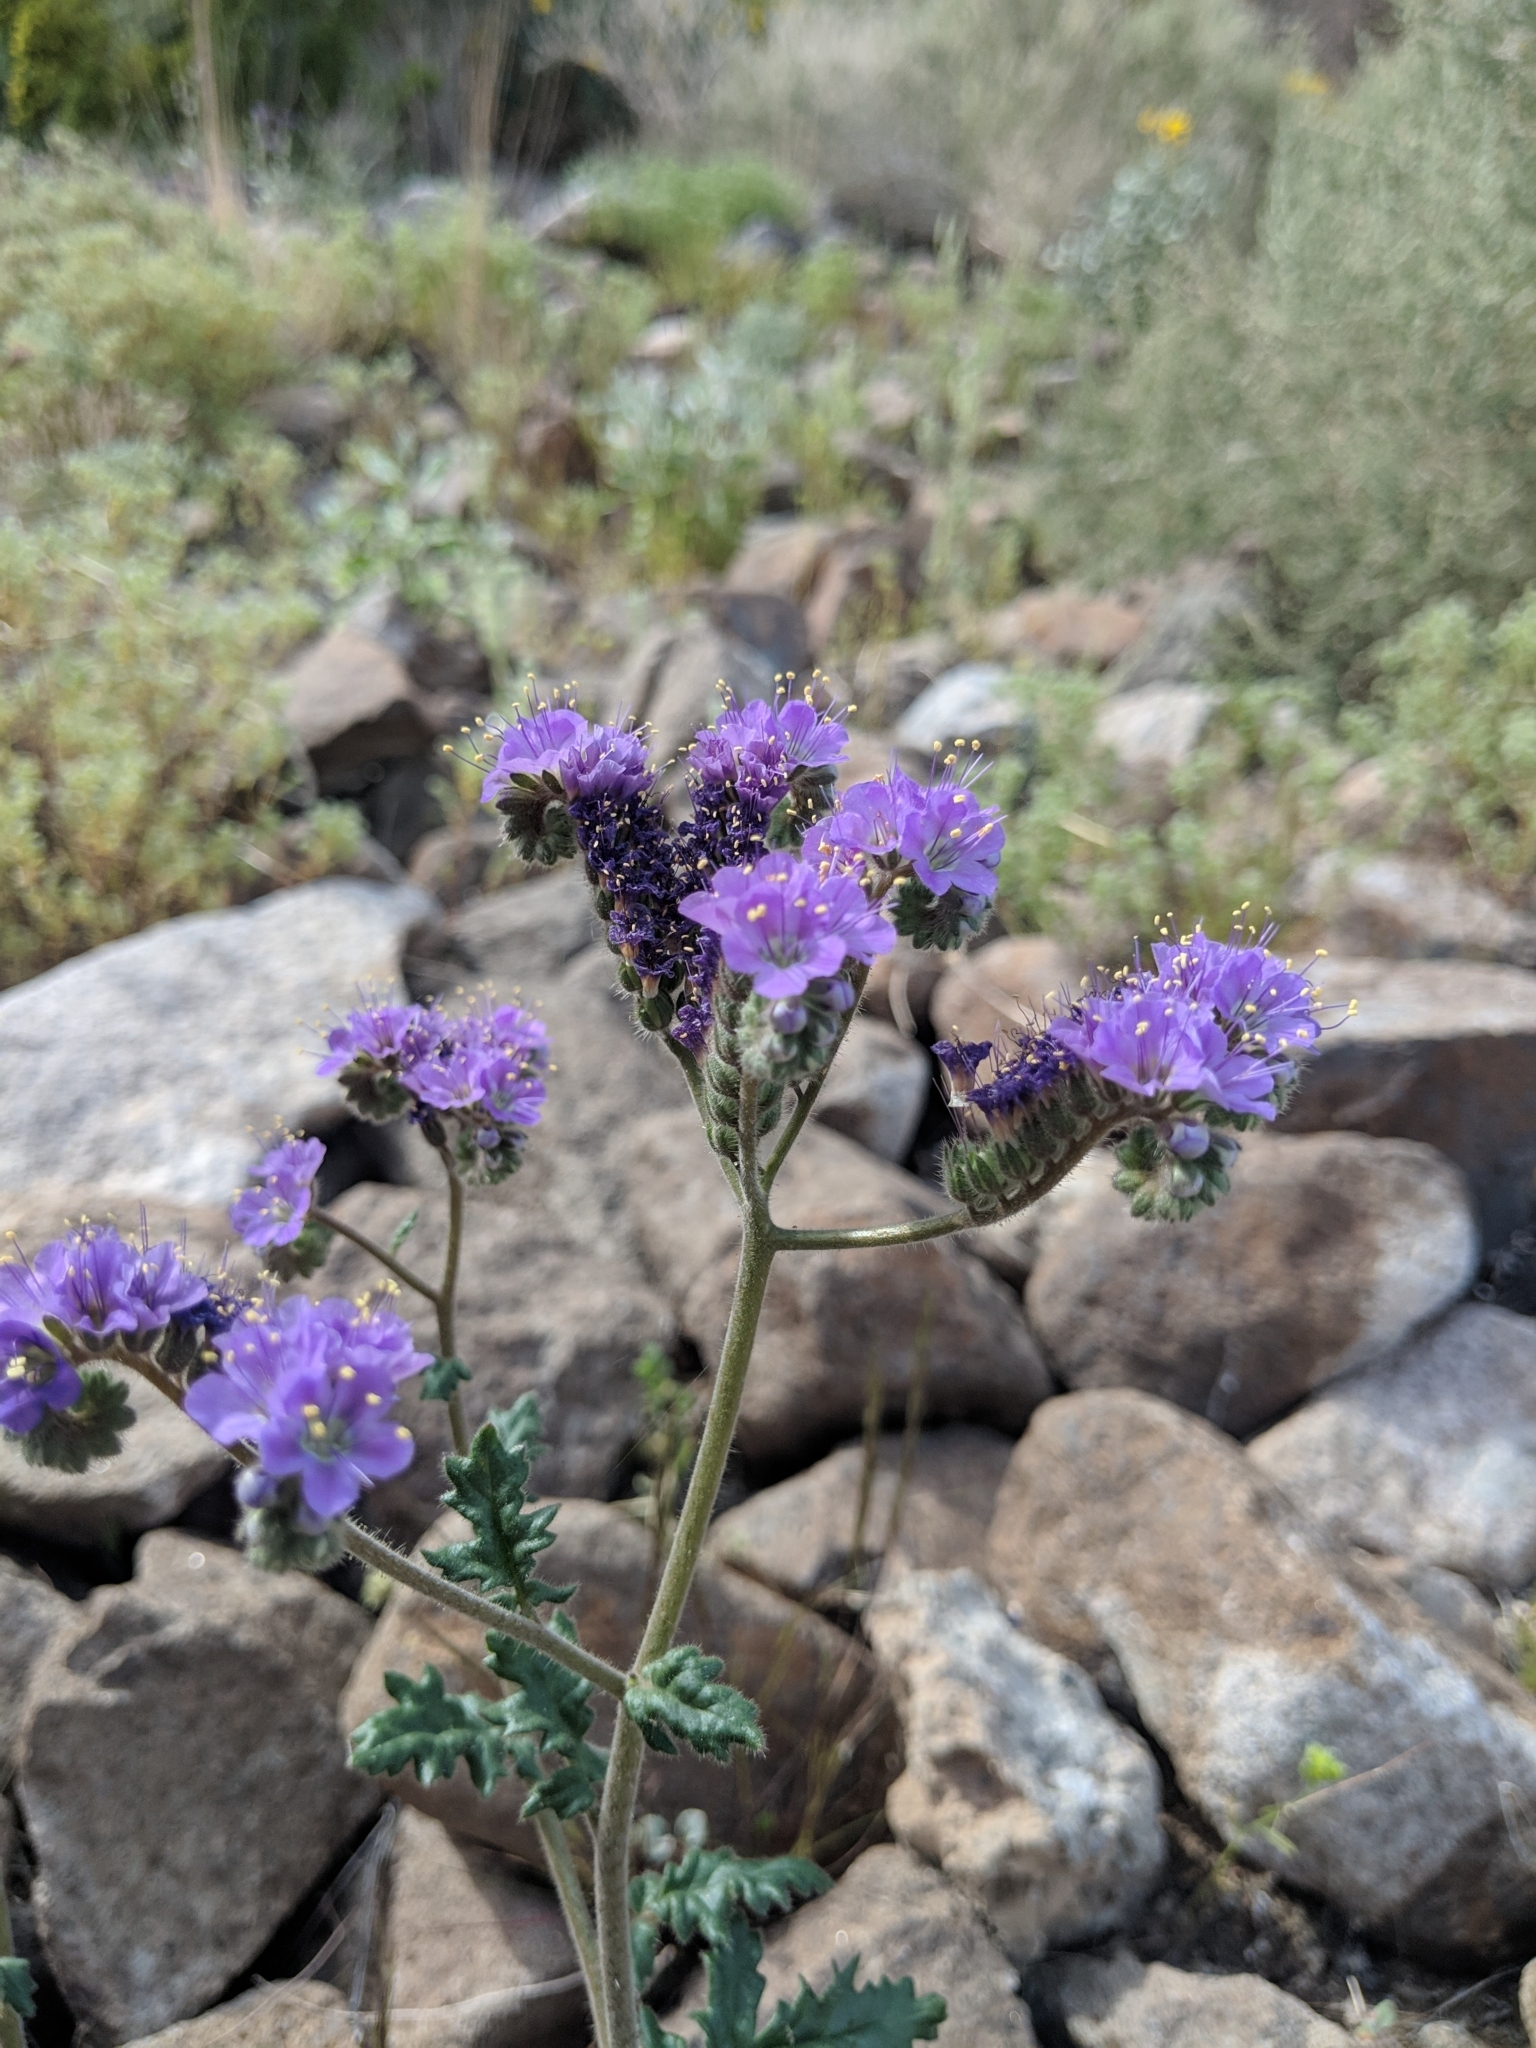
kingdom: Plantae
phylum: Tracheophyta
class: Magnoliopsida
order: Boraginales
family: Hydrophyllaceae
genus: Phacelia
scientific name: Phacelia crenulata
